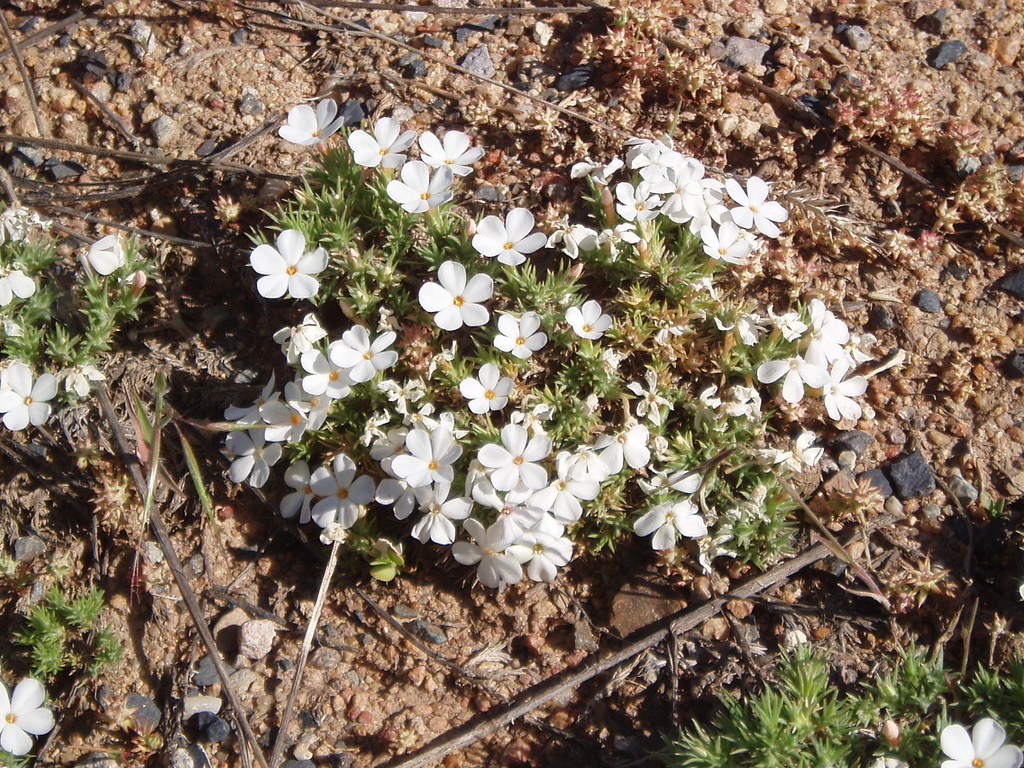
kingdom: Plantae
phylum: Tracheophyta
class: Magnoliopsida
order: Ericales
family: Polemoniaceae
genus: Phlox
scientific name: Phlox hoodii
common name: Moss phlox
